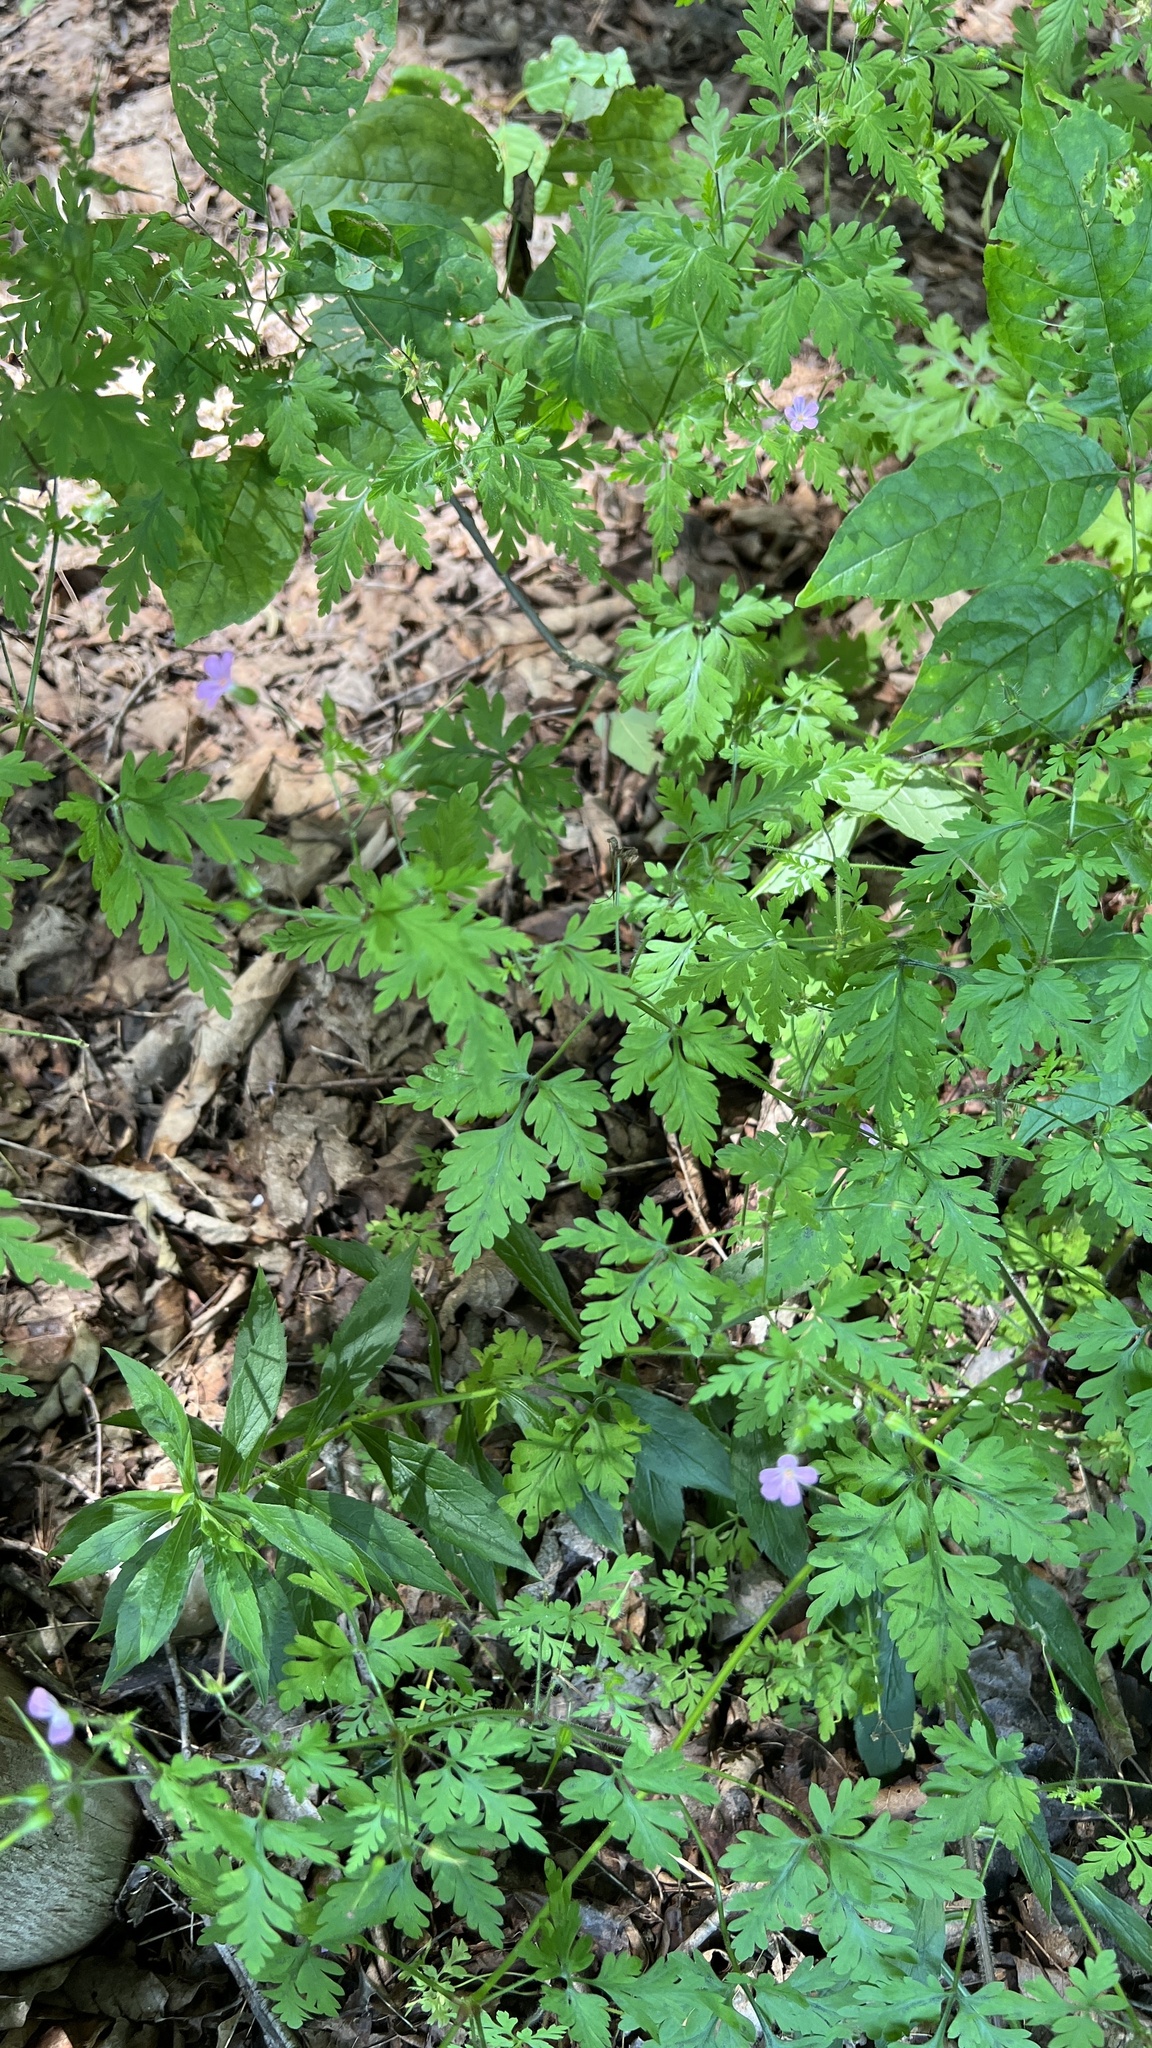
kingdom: Plantae
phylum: Tracheophyta
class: Magnoliopsida
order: Geraniales
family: Geraniaceae
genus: Geranium
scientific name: Geranium robertianum
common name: Herb-robert
